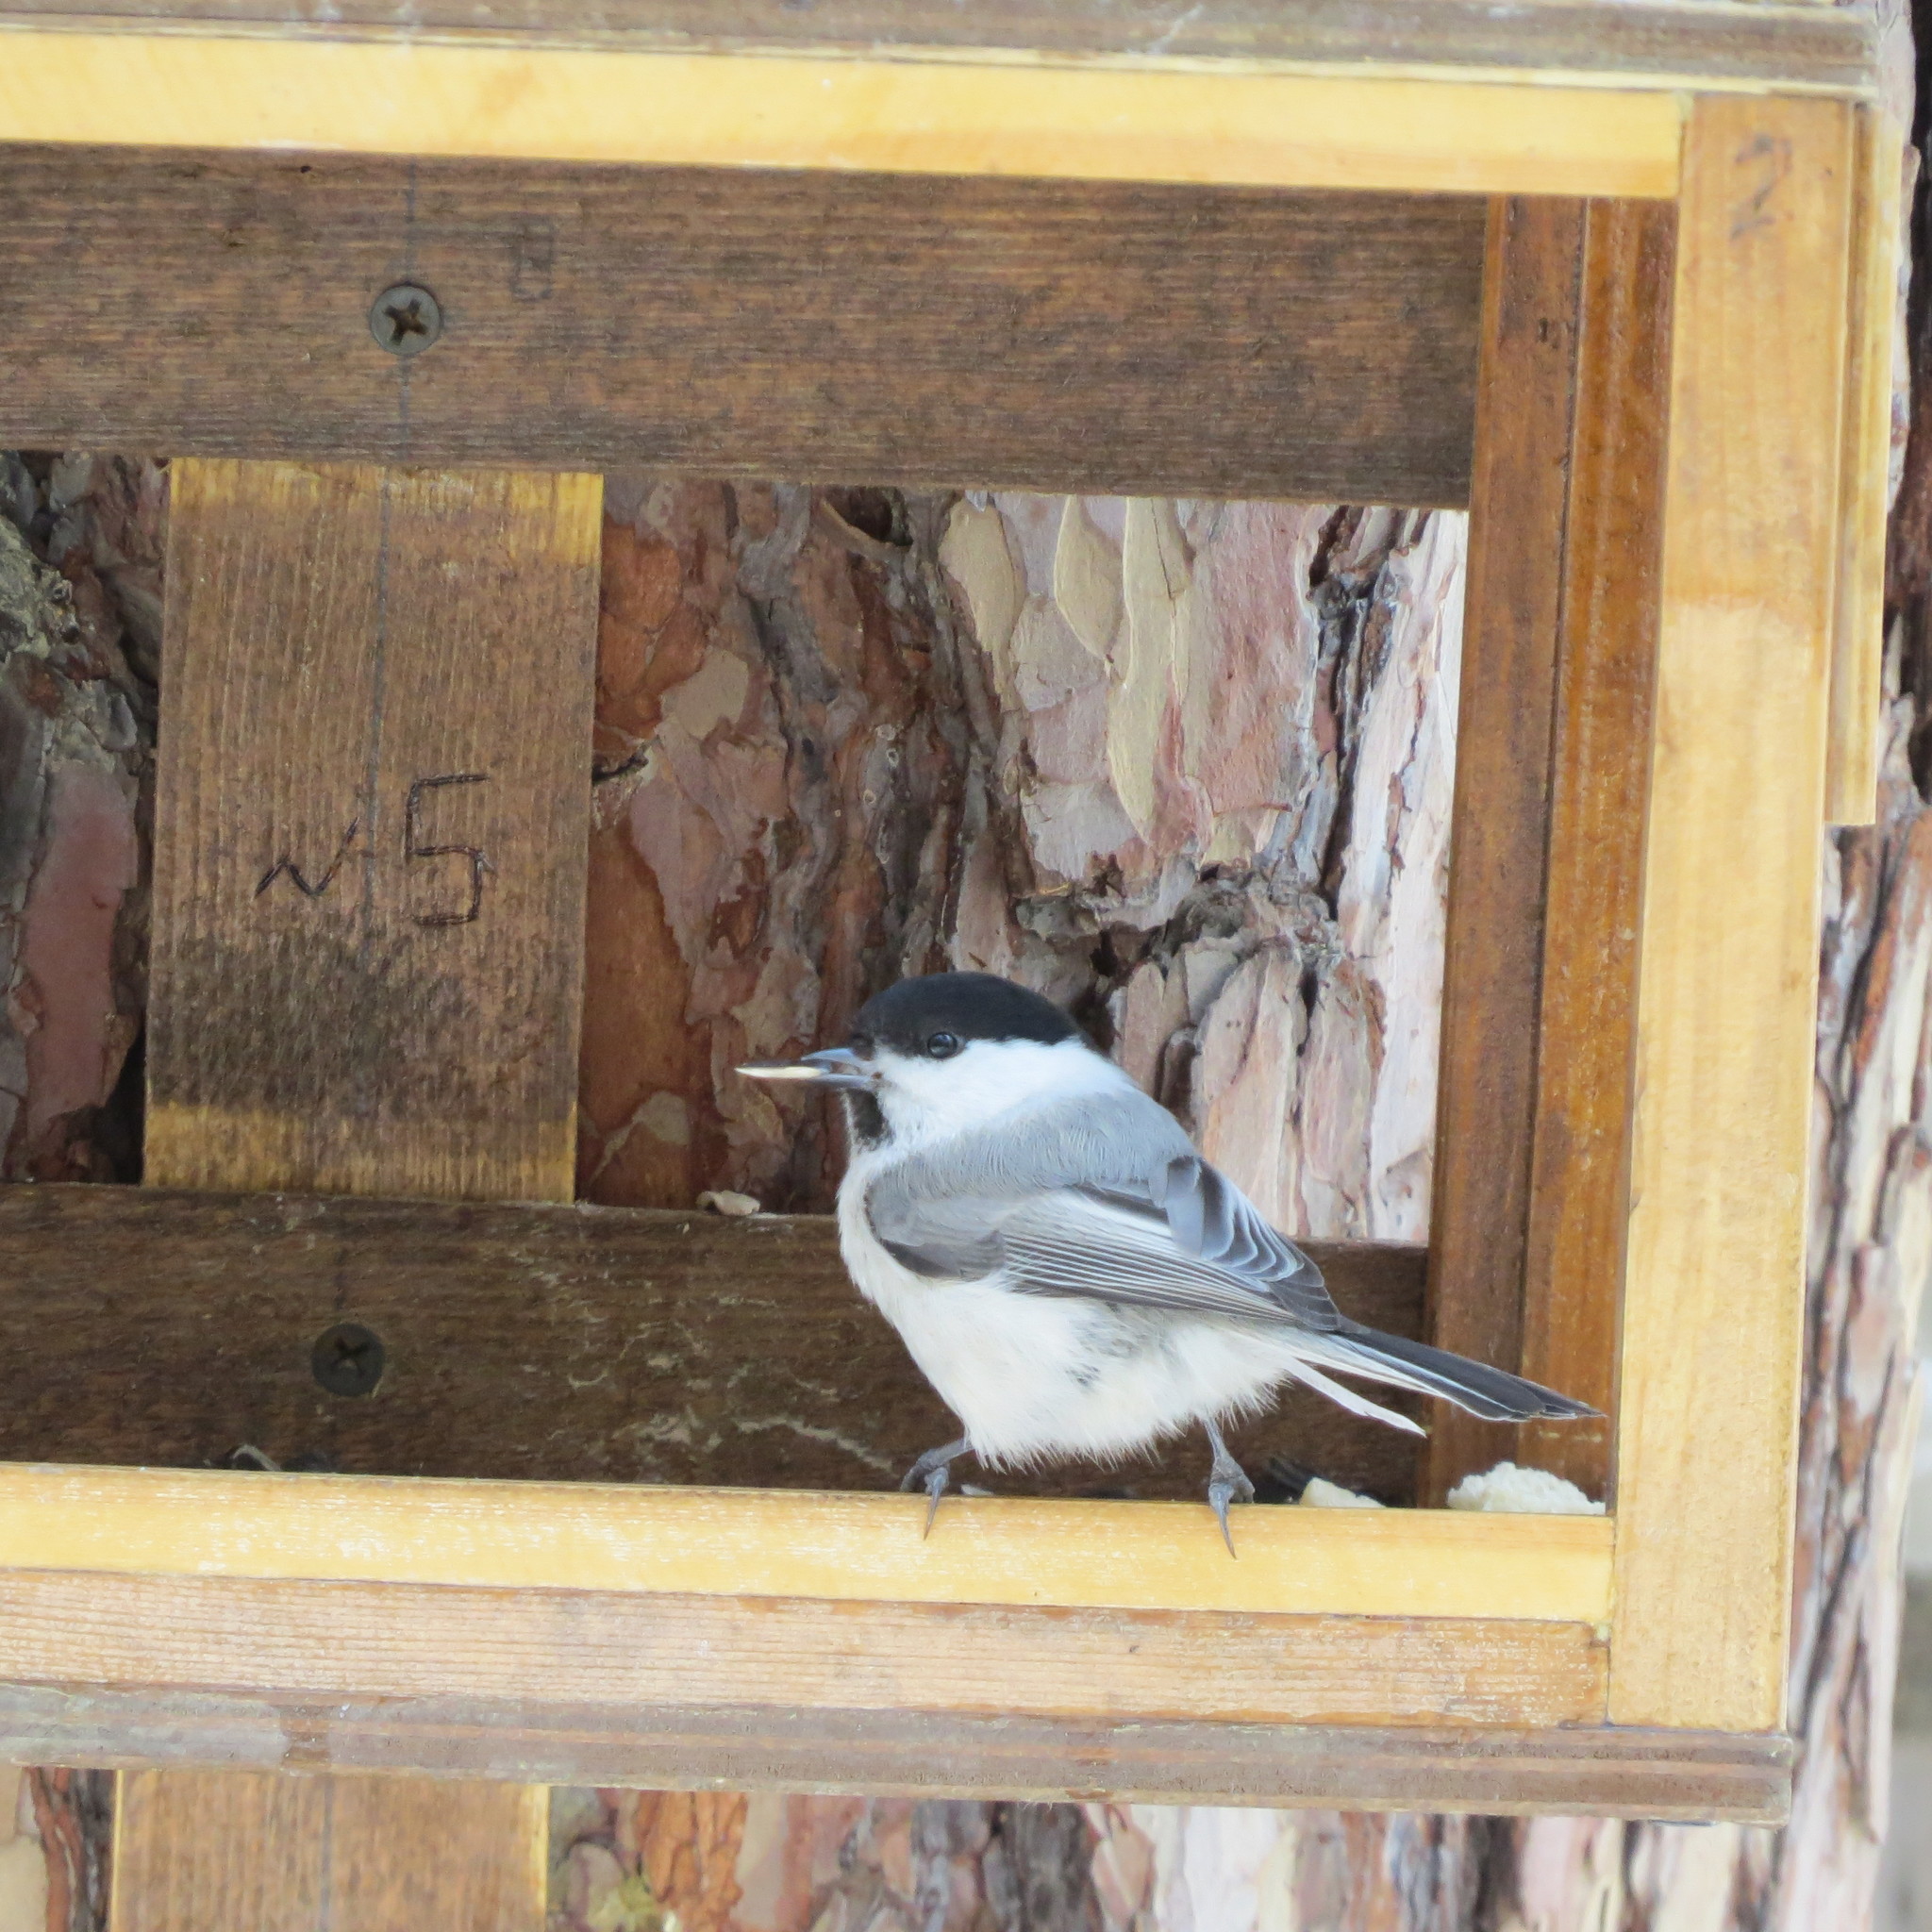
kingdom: Animalia
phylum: Chordata
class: Aves
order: Passeriformes
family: Paridae
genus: Poecile
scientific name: Poecile montanus
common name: Willow tit
